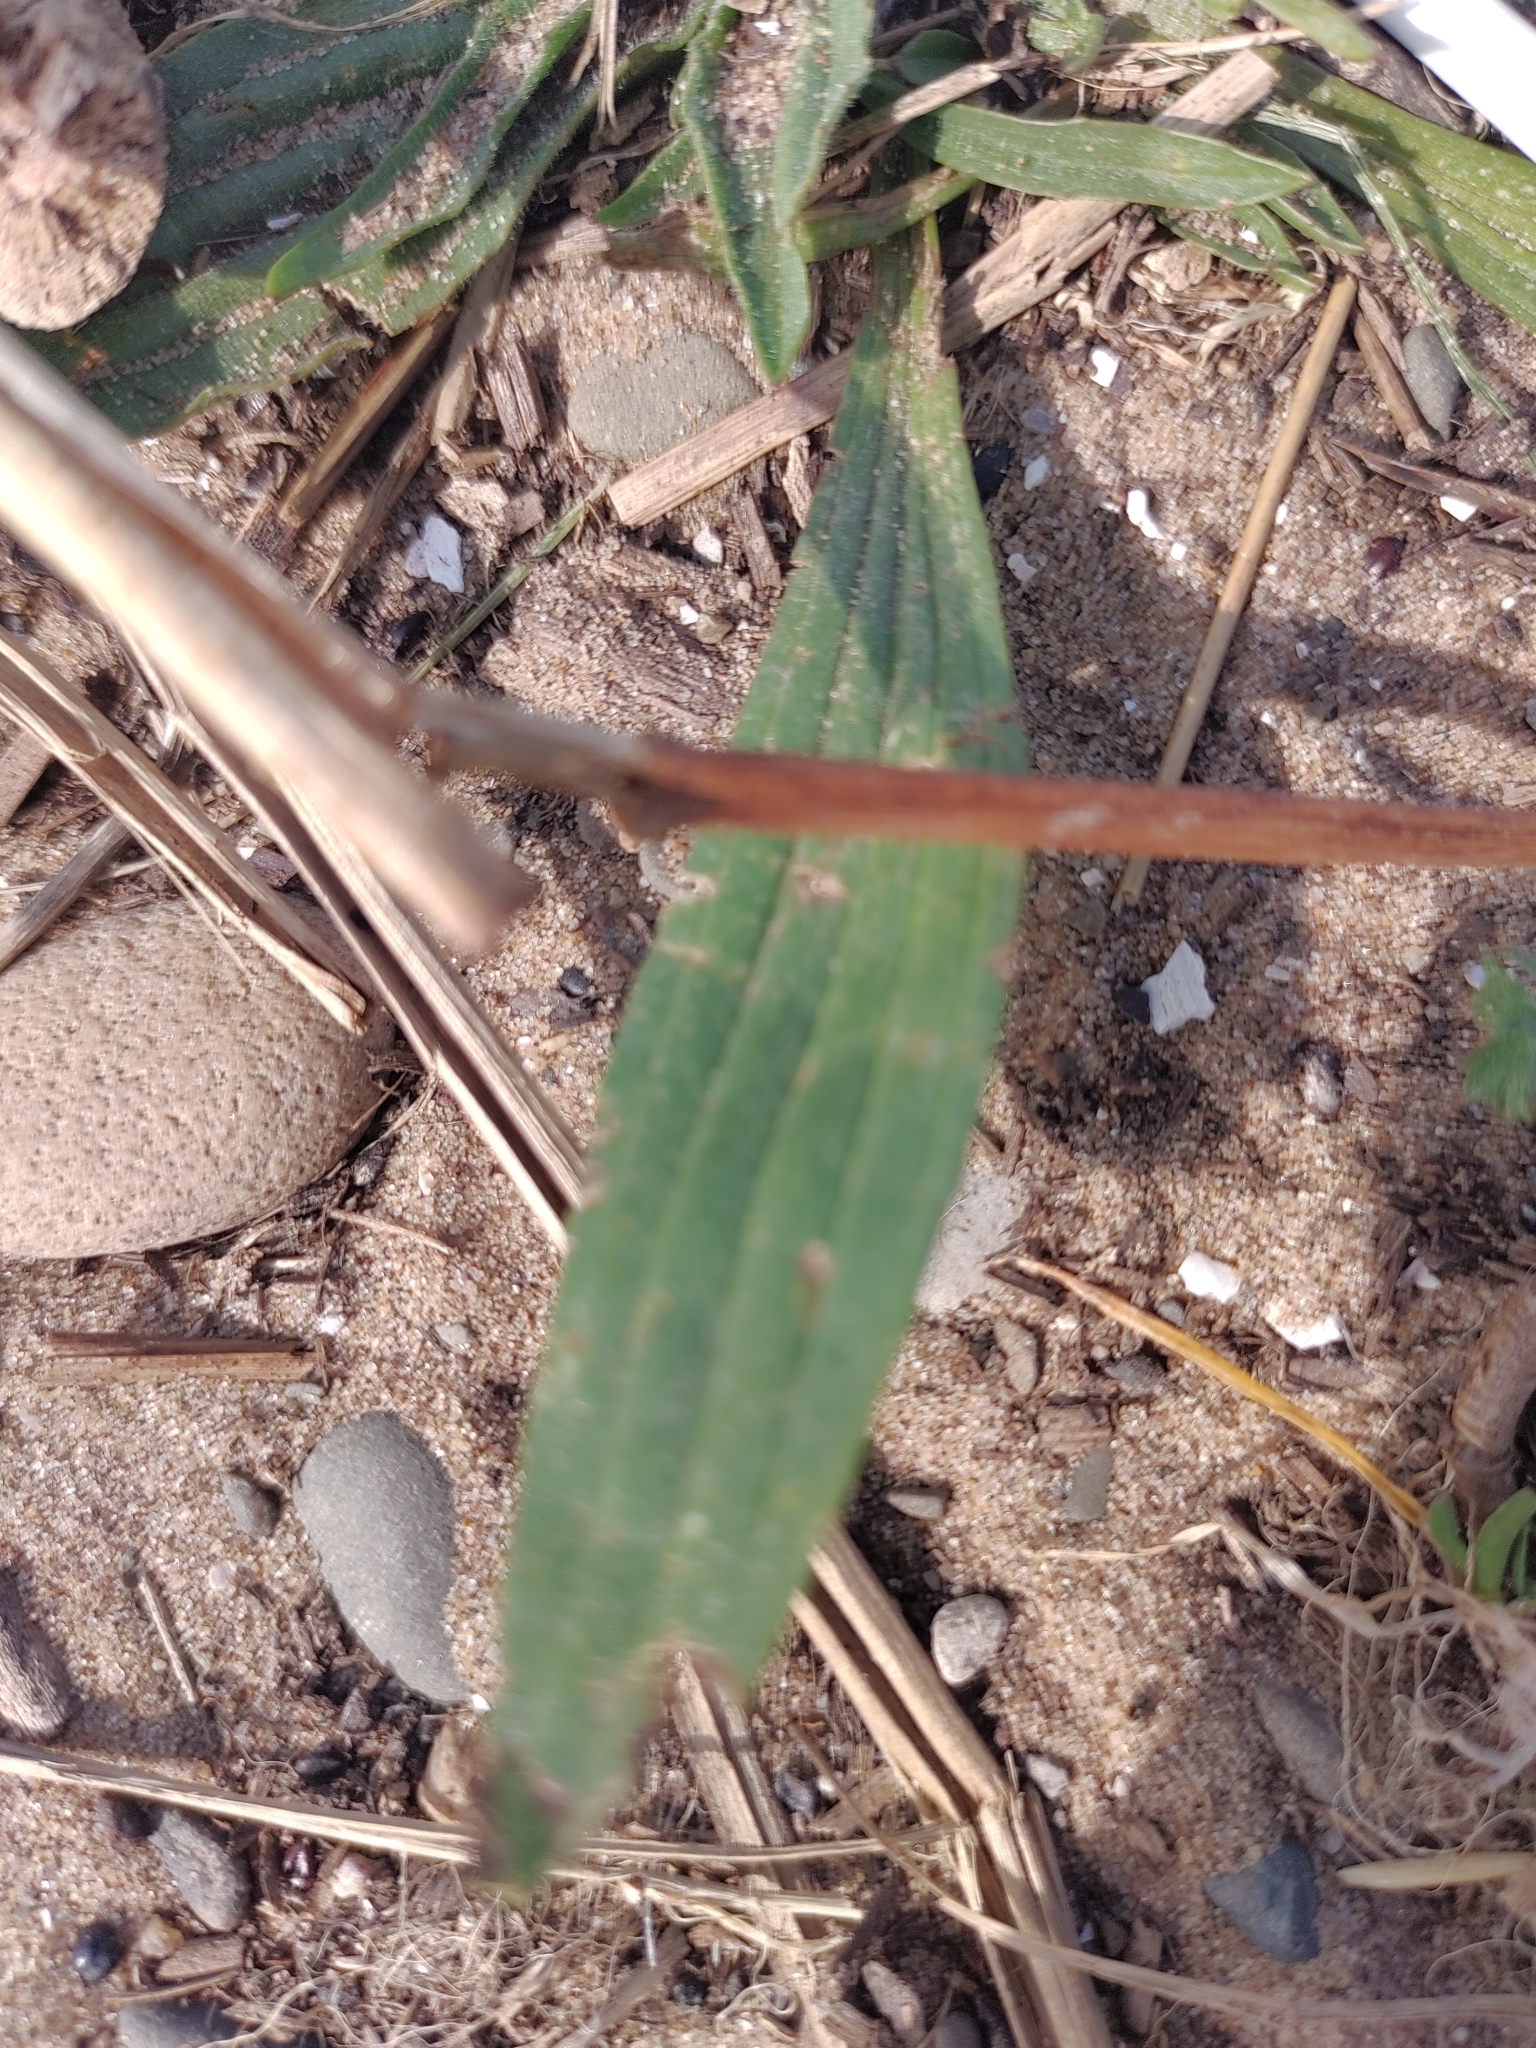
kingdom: Plantae
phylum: Tracheophyta
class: Magnoliopsida
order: Lamiales
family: Plantaginaceae
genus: Plantago
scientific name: Plantago lanceolata
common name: Ribwort plantain
